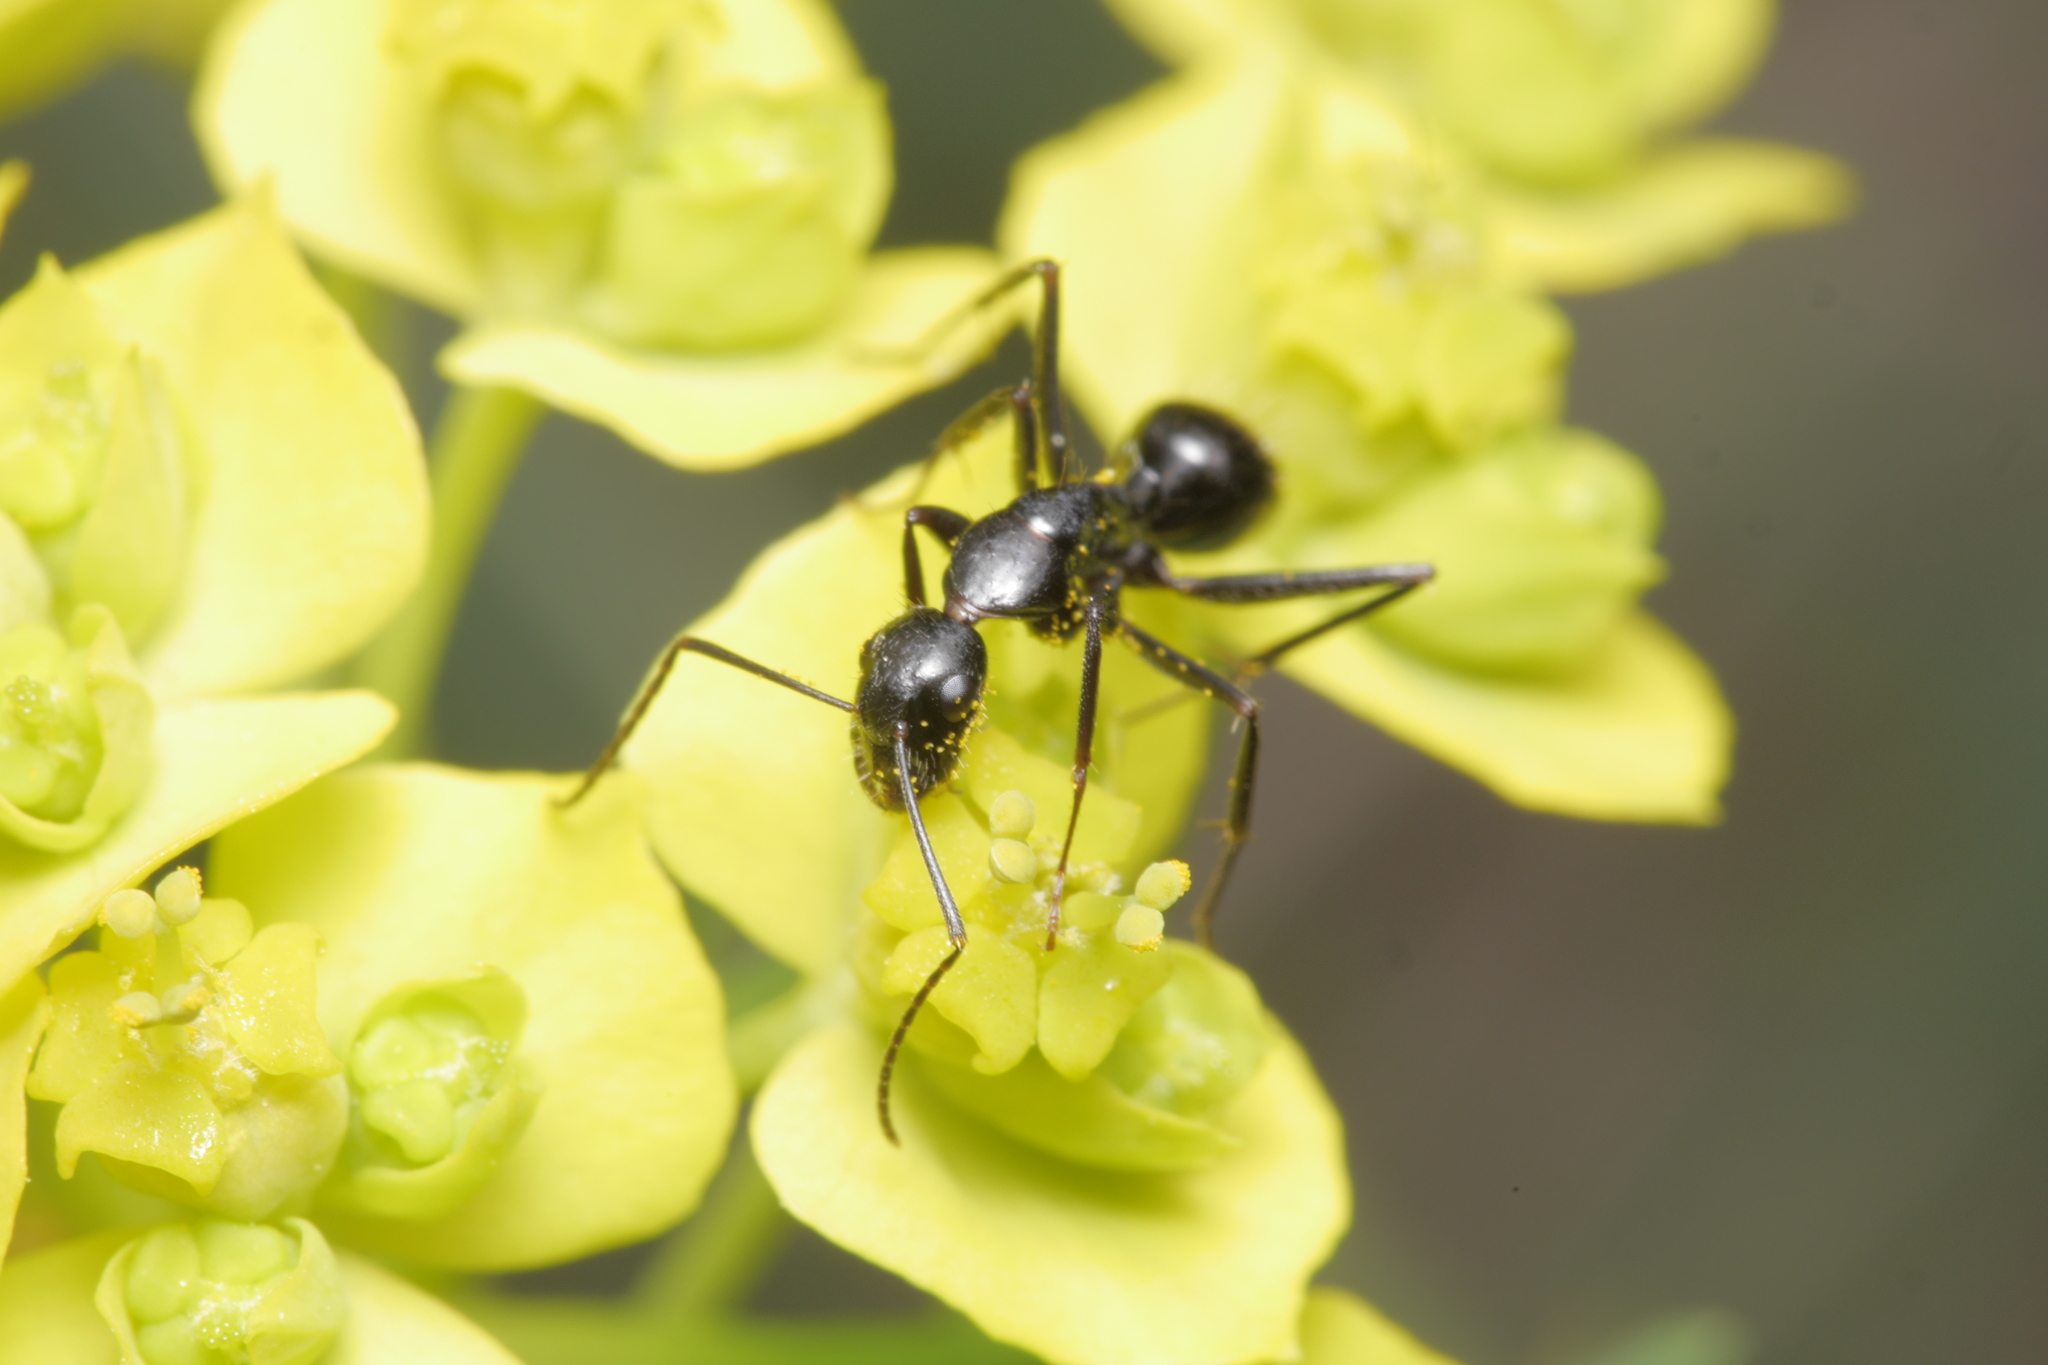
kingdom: Animalia
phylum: Arthropoda
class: Insecta
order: Hymenoptera
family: Formicidae
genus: Camponotus
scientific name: Camponotus aethiops
